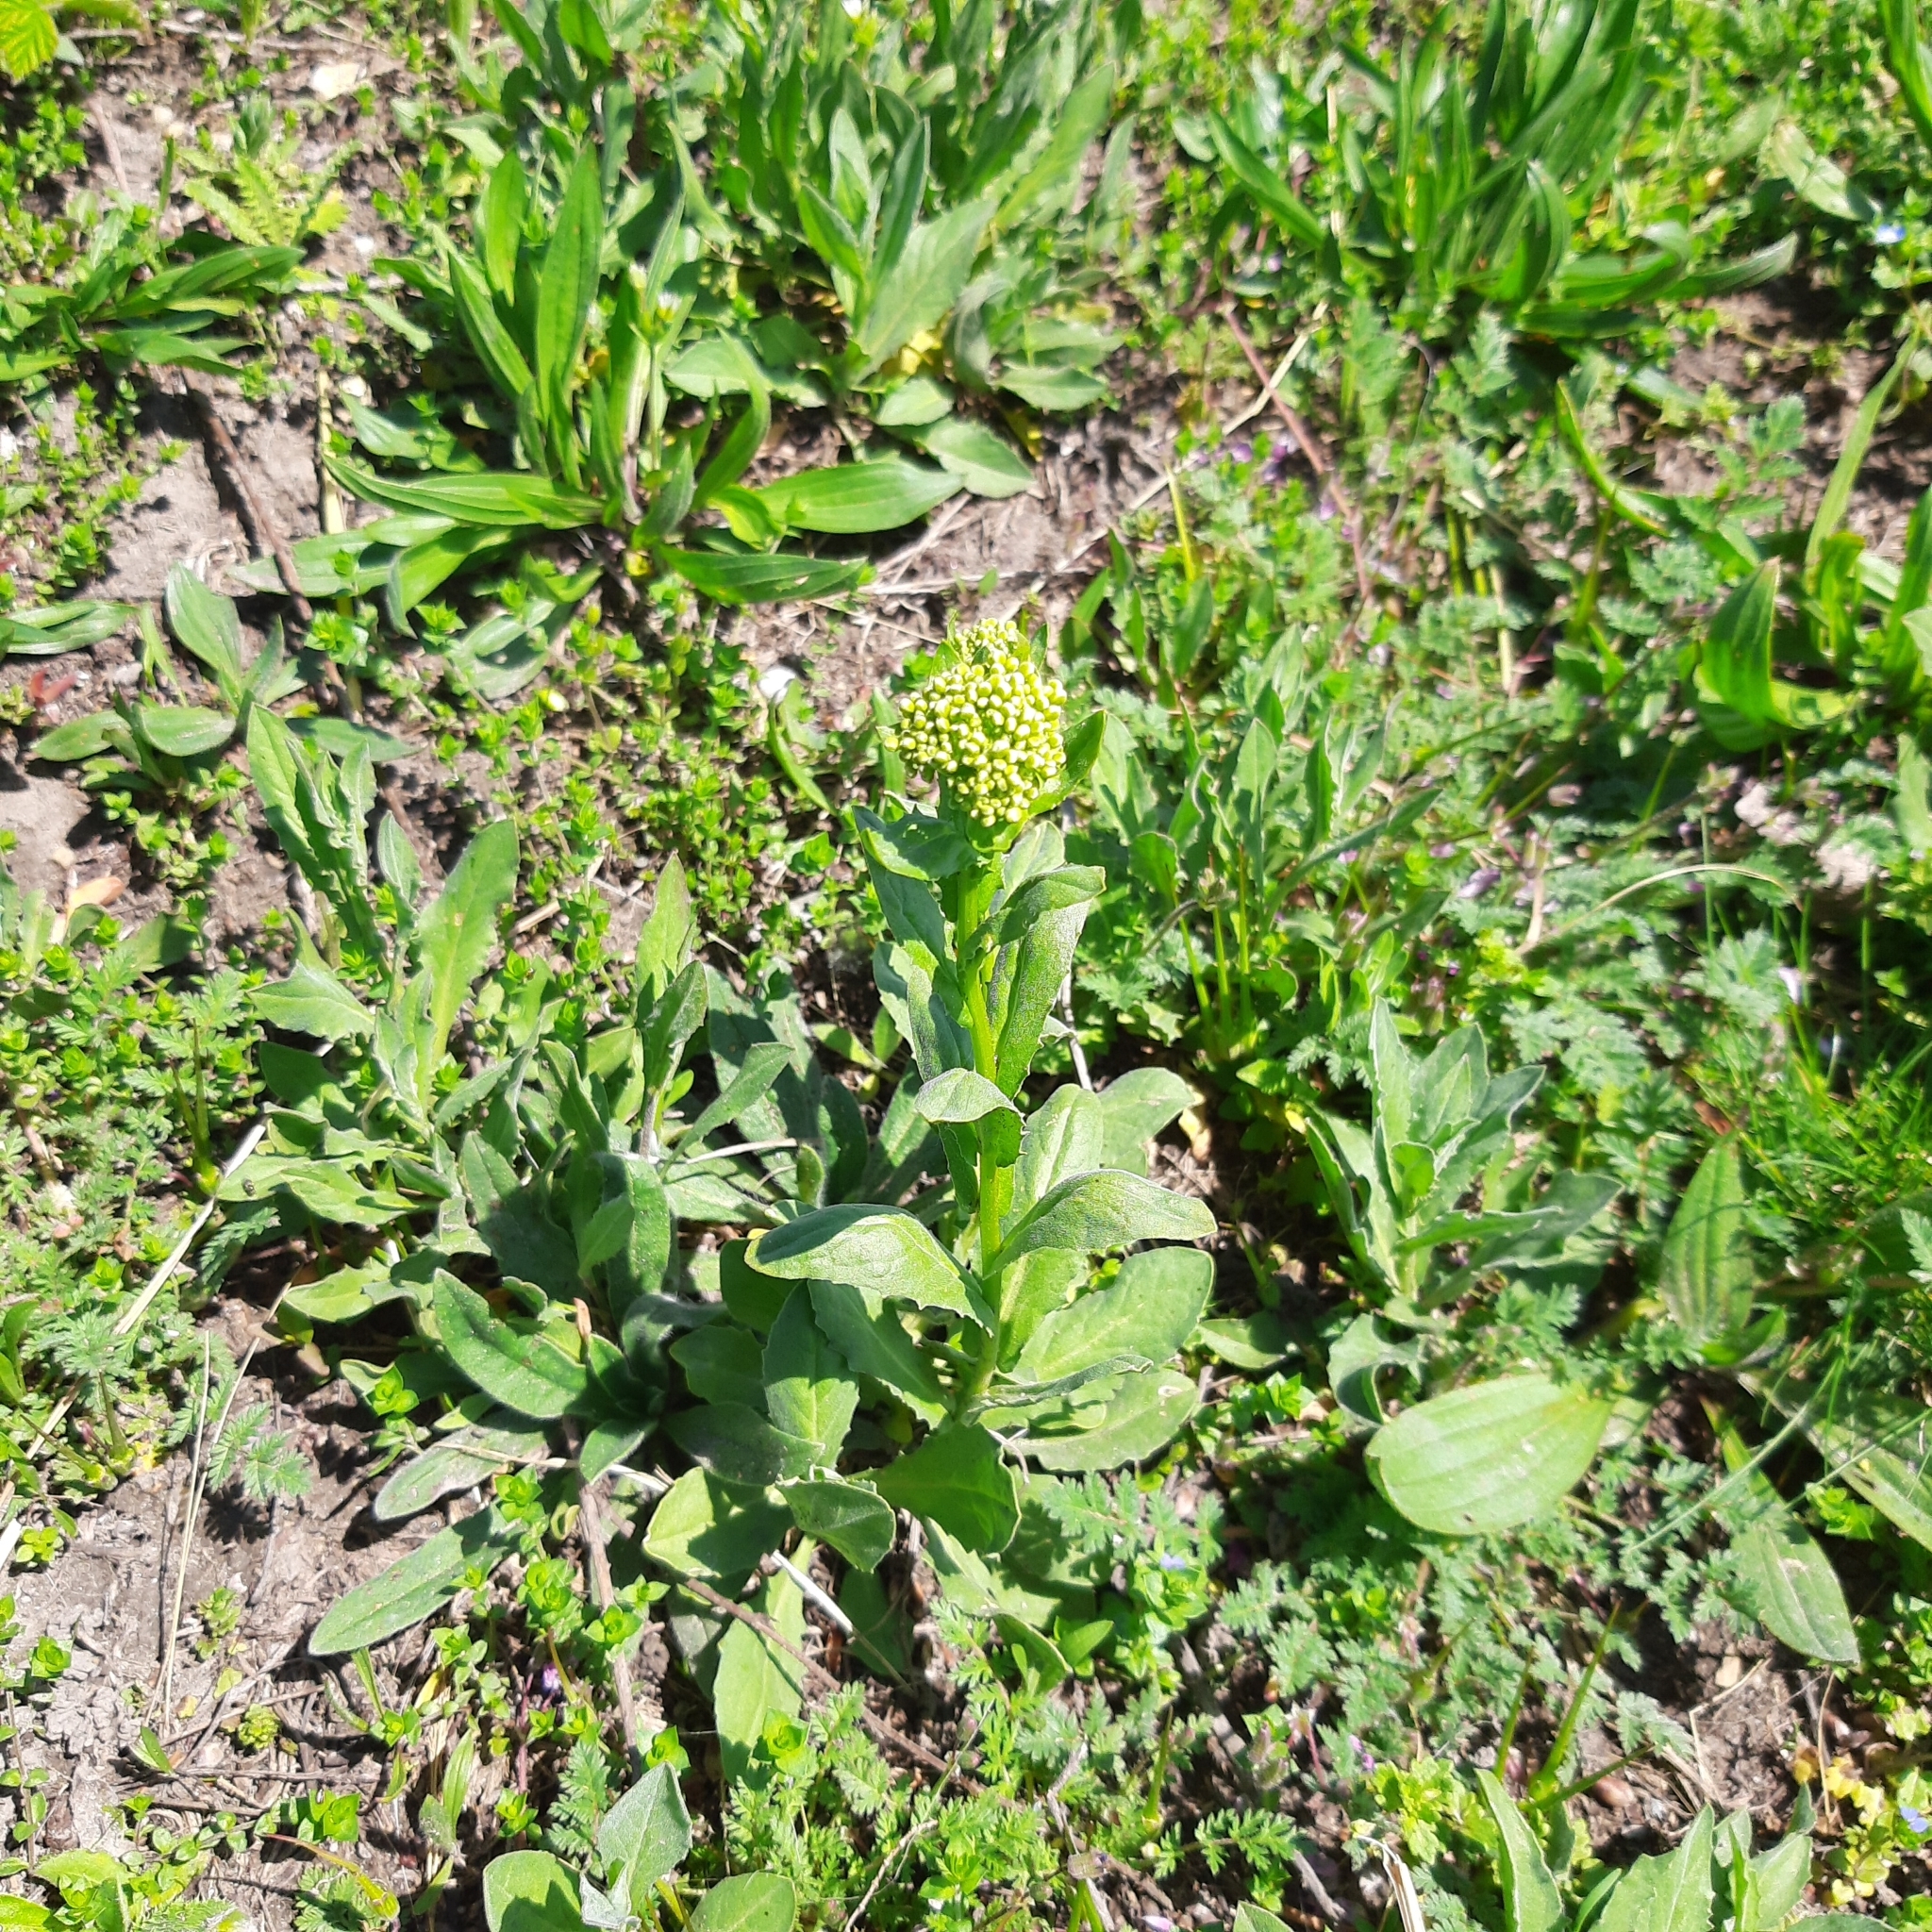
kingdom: Plantae
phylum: Tracheophyta
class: Magnoliopsida
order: Brassicales
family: Brassicaceae
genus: Lepidium
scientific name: Lepidium draba
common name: Hoary cress
